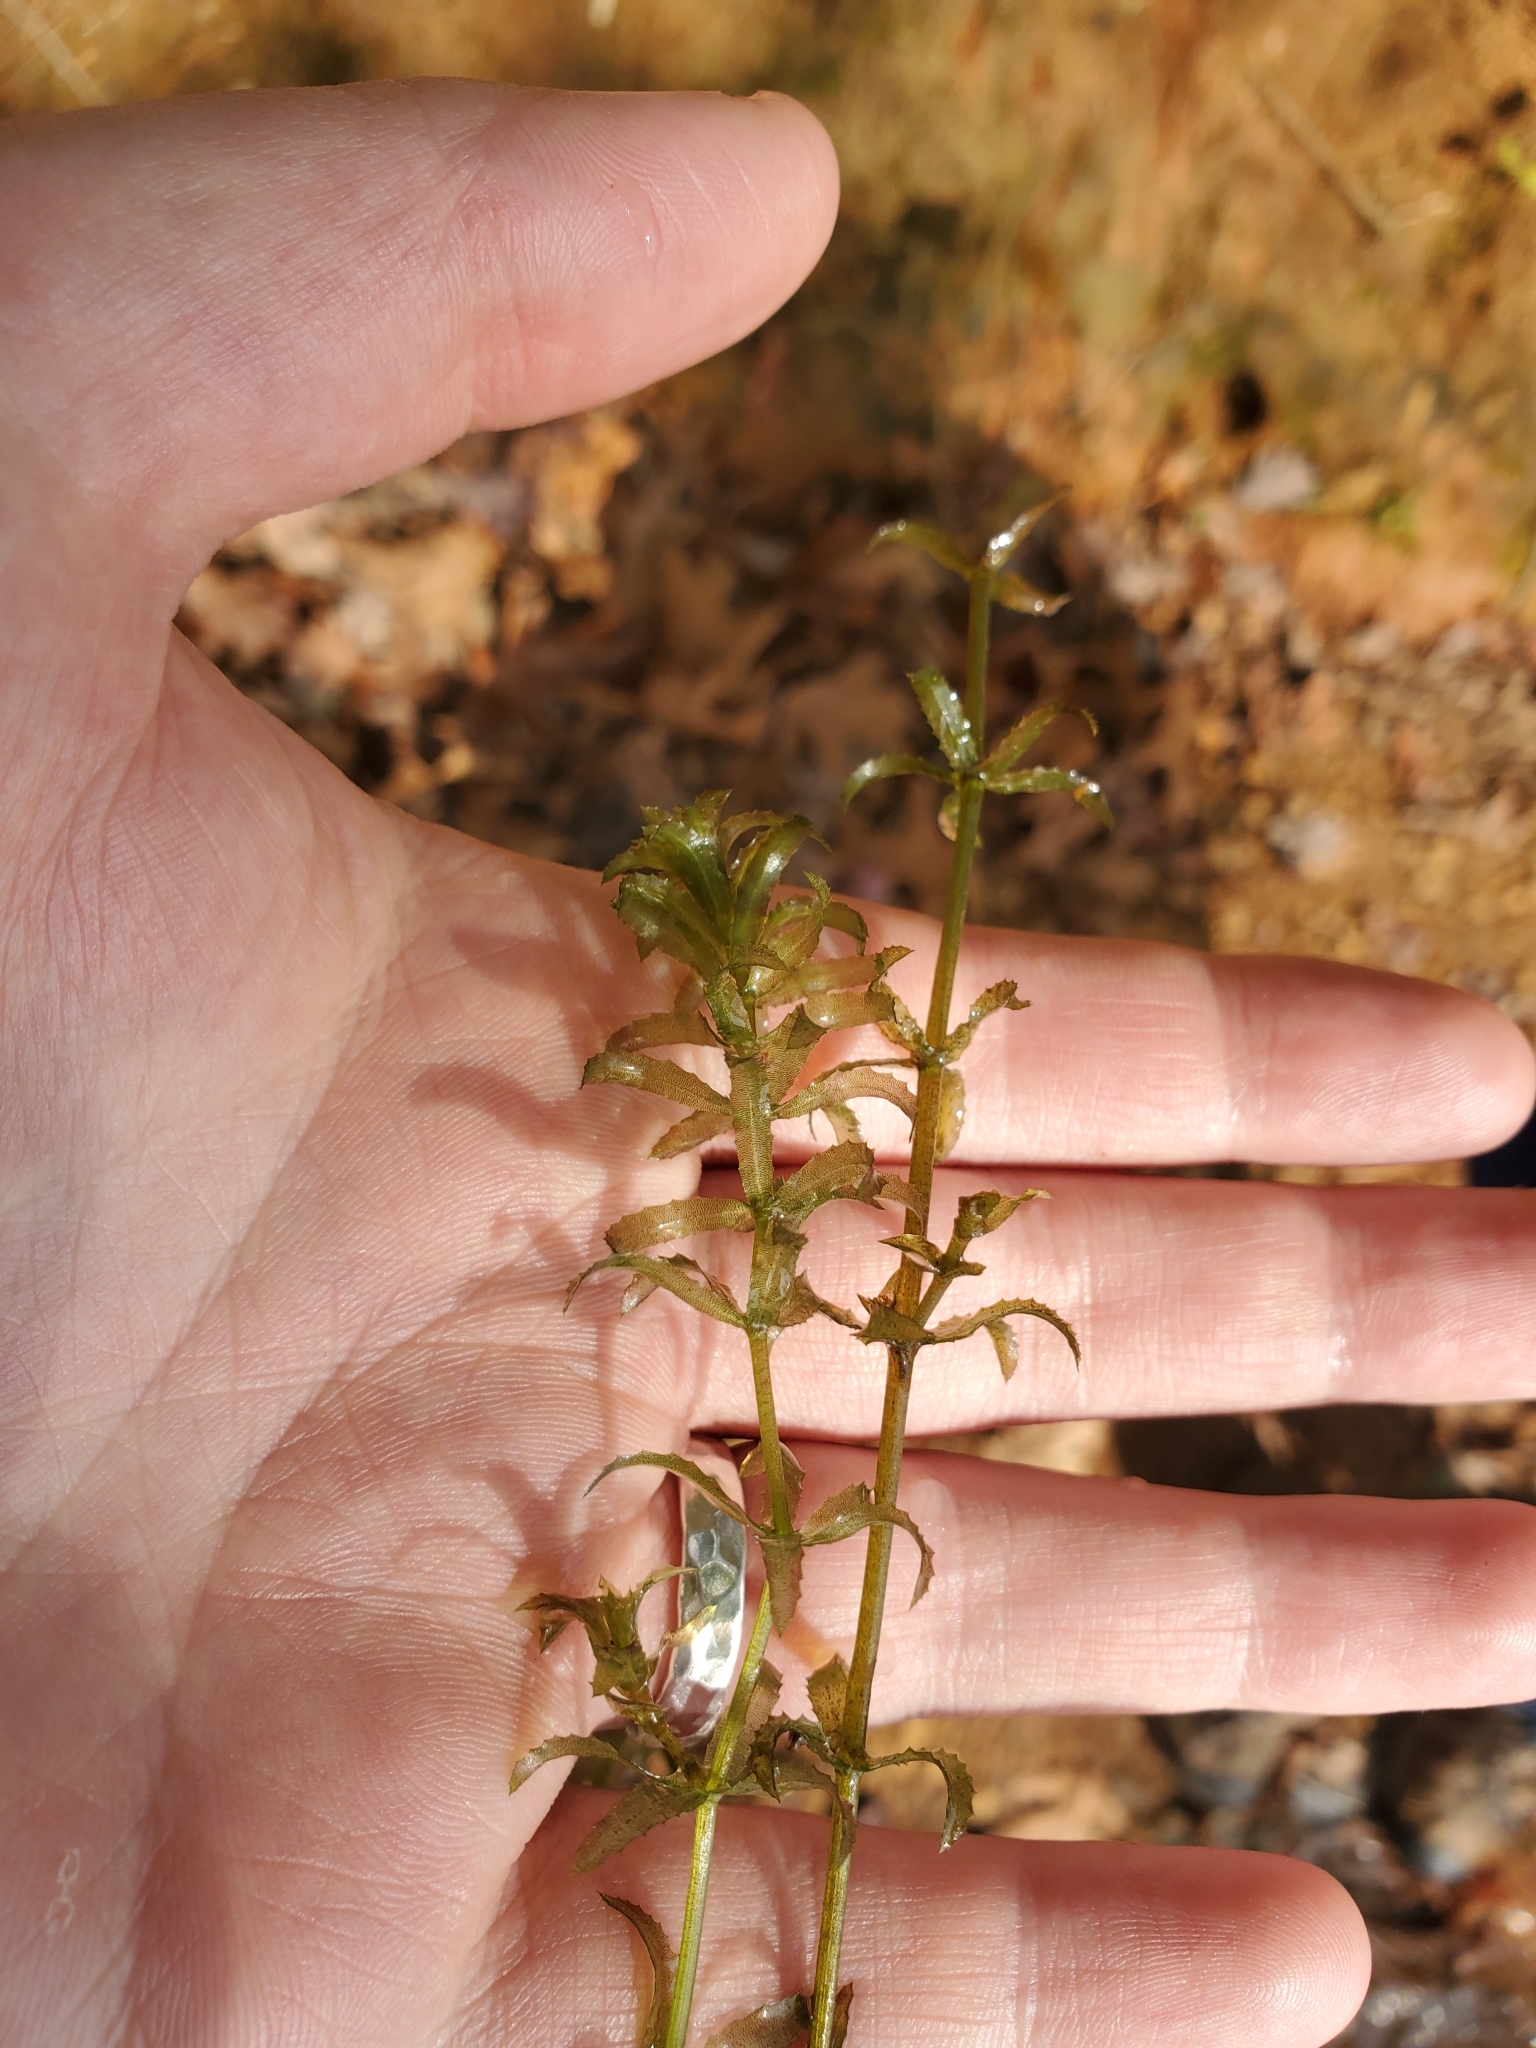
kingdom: Plantae
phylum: Tracheophyta
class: Liliopsida
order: Alismatales
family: Hydrocharitaceae
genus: Hydrilla
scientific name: Hydrilla verticillata
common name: Florida-elodea
